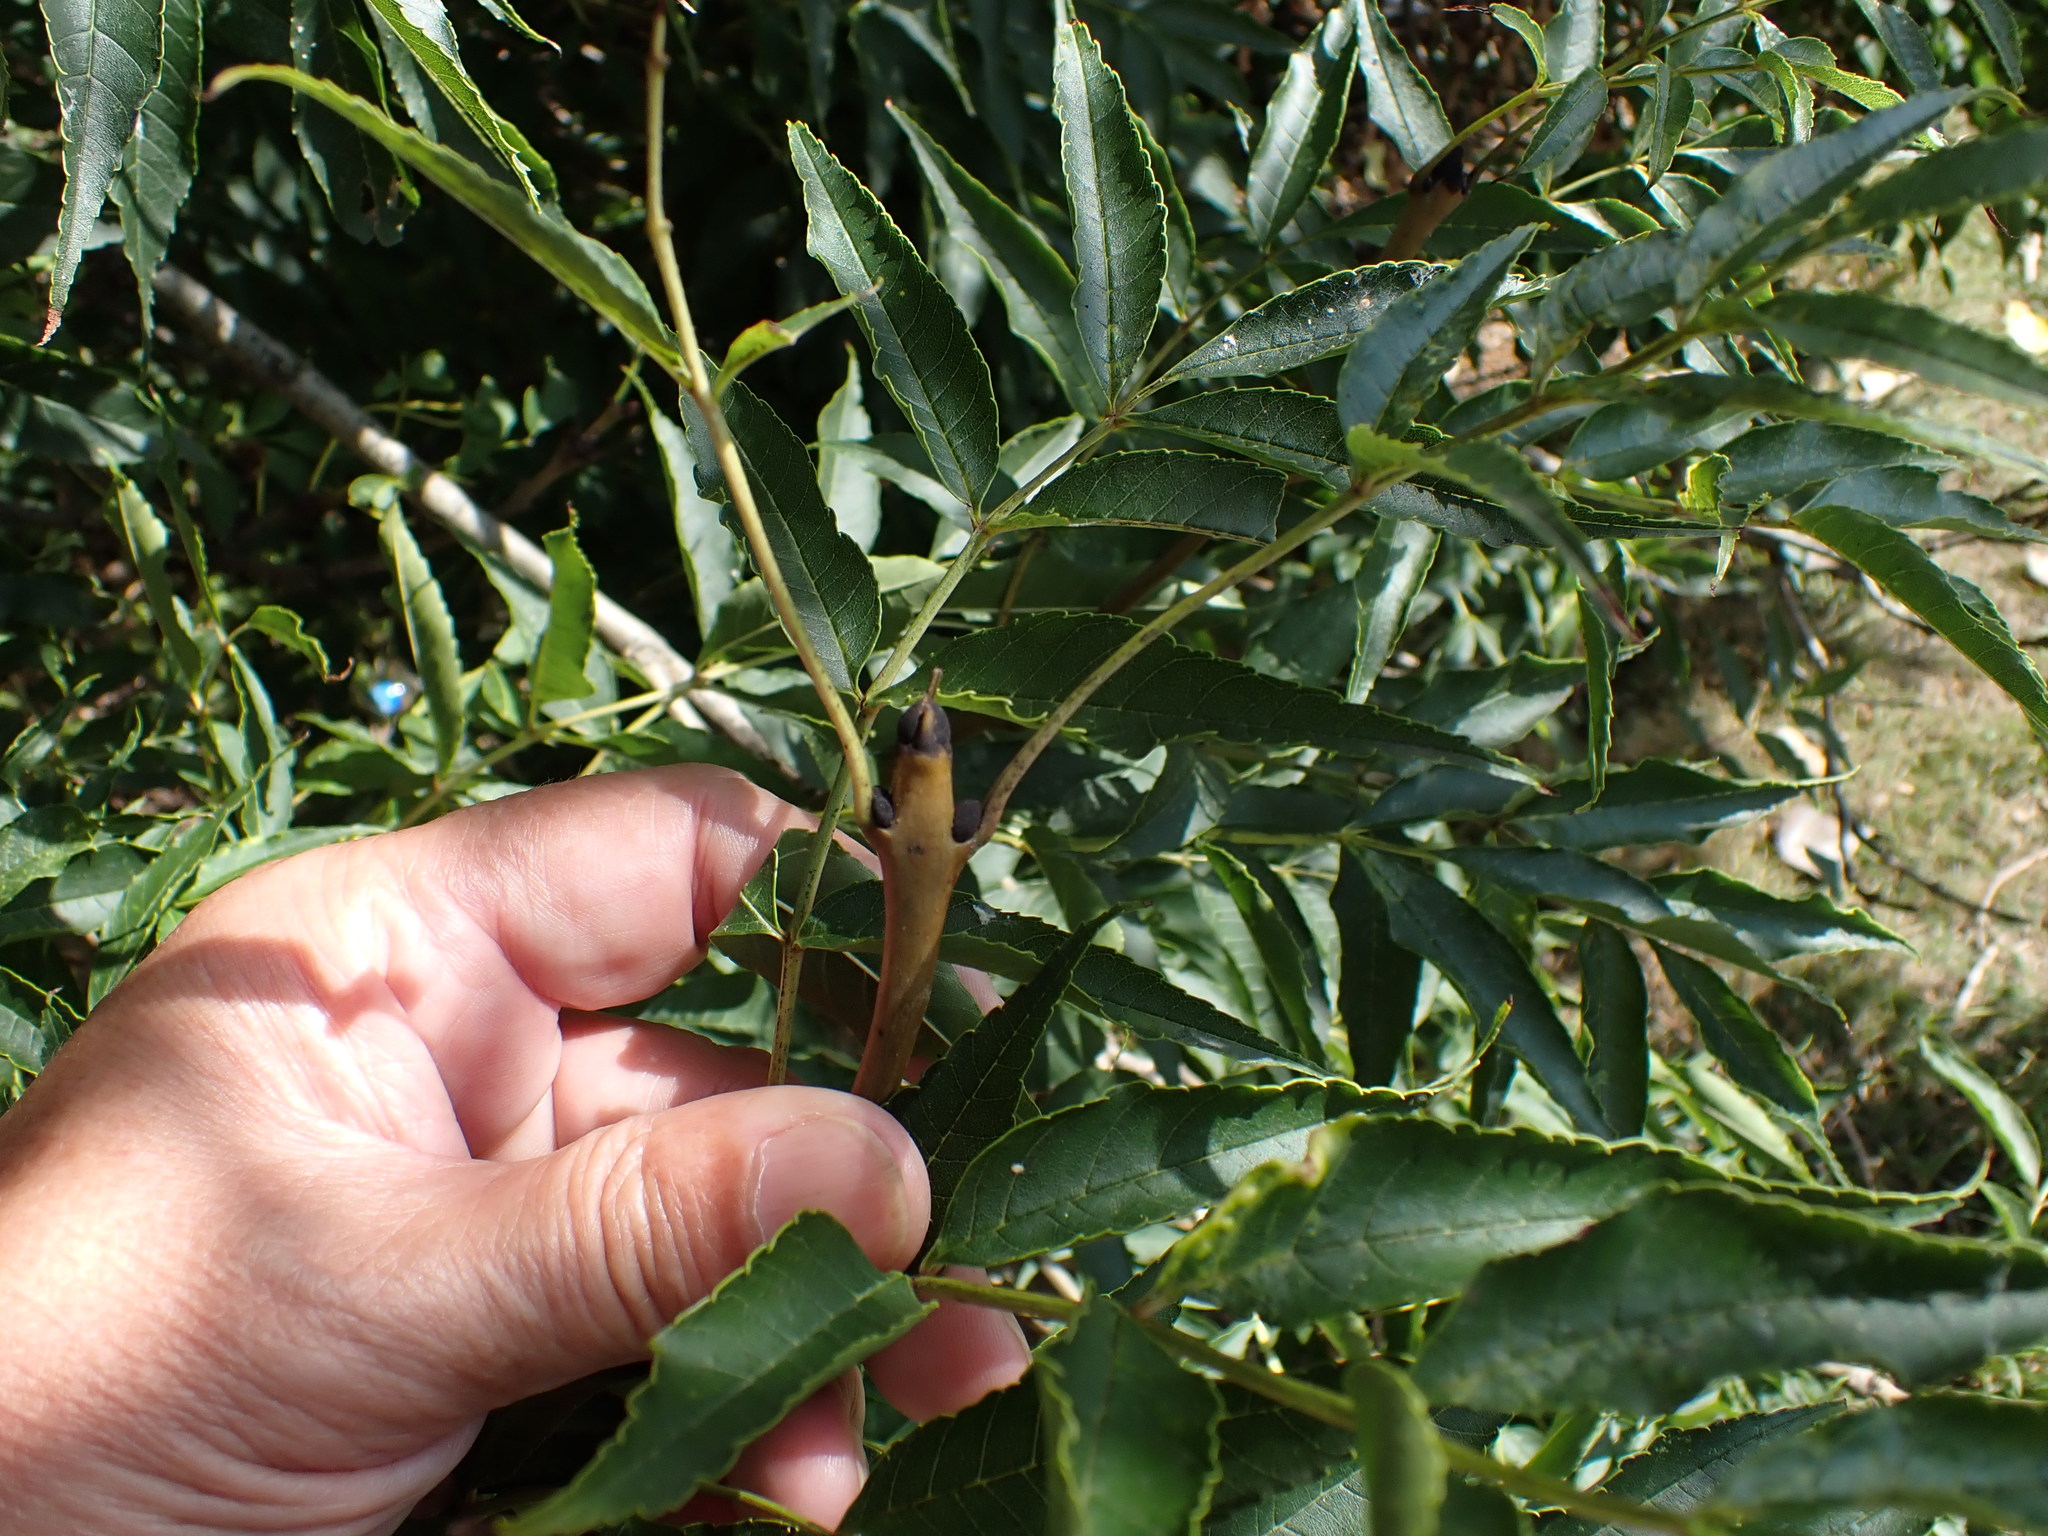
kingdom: Plantae
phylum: Tracheophyta
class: Magnoliopsida
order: Lamiales
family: Oleaceae
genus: Fraxinus
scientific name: Fraxinus excelsior
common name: European ash
